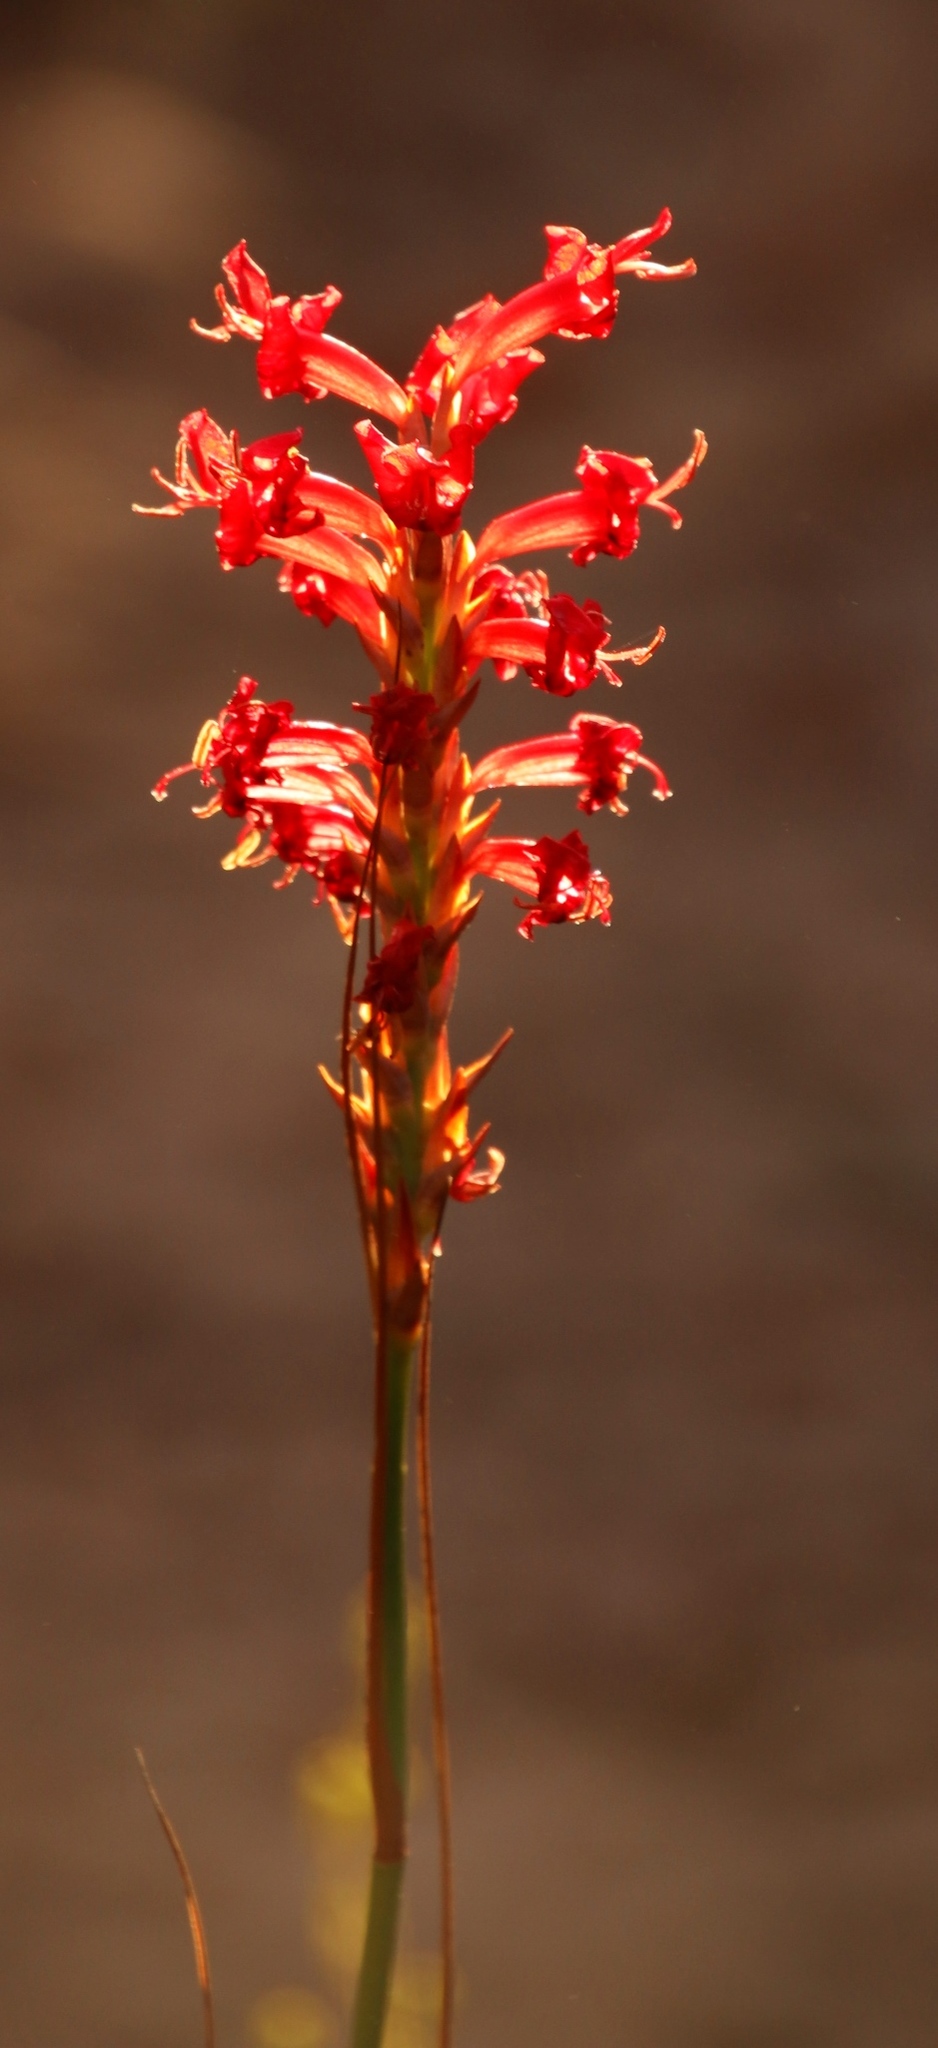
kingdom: Plantae
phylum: Tracheophyta
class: Liliopsida
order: Asparagales
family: Iridaceae
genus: Tritoniopsis
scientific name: Tritoniopsis triticea
